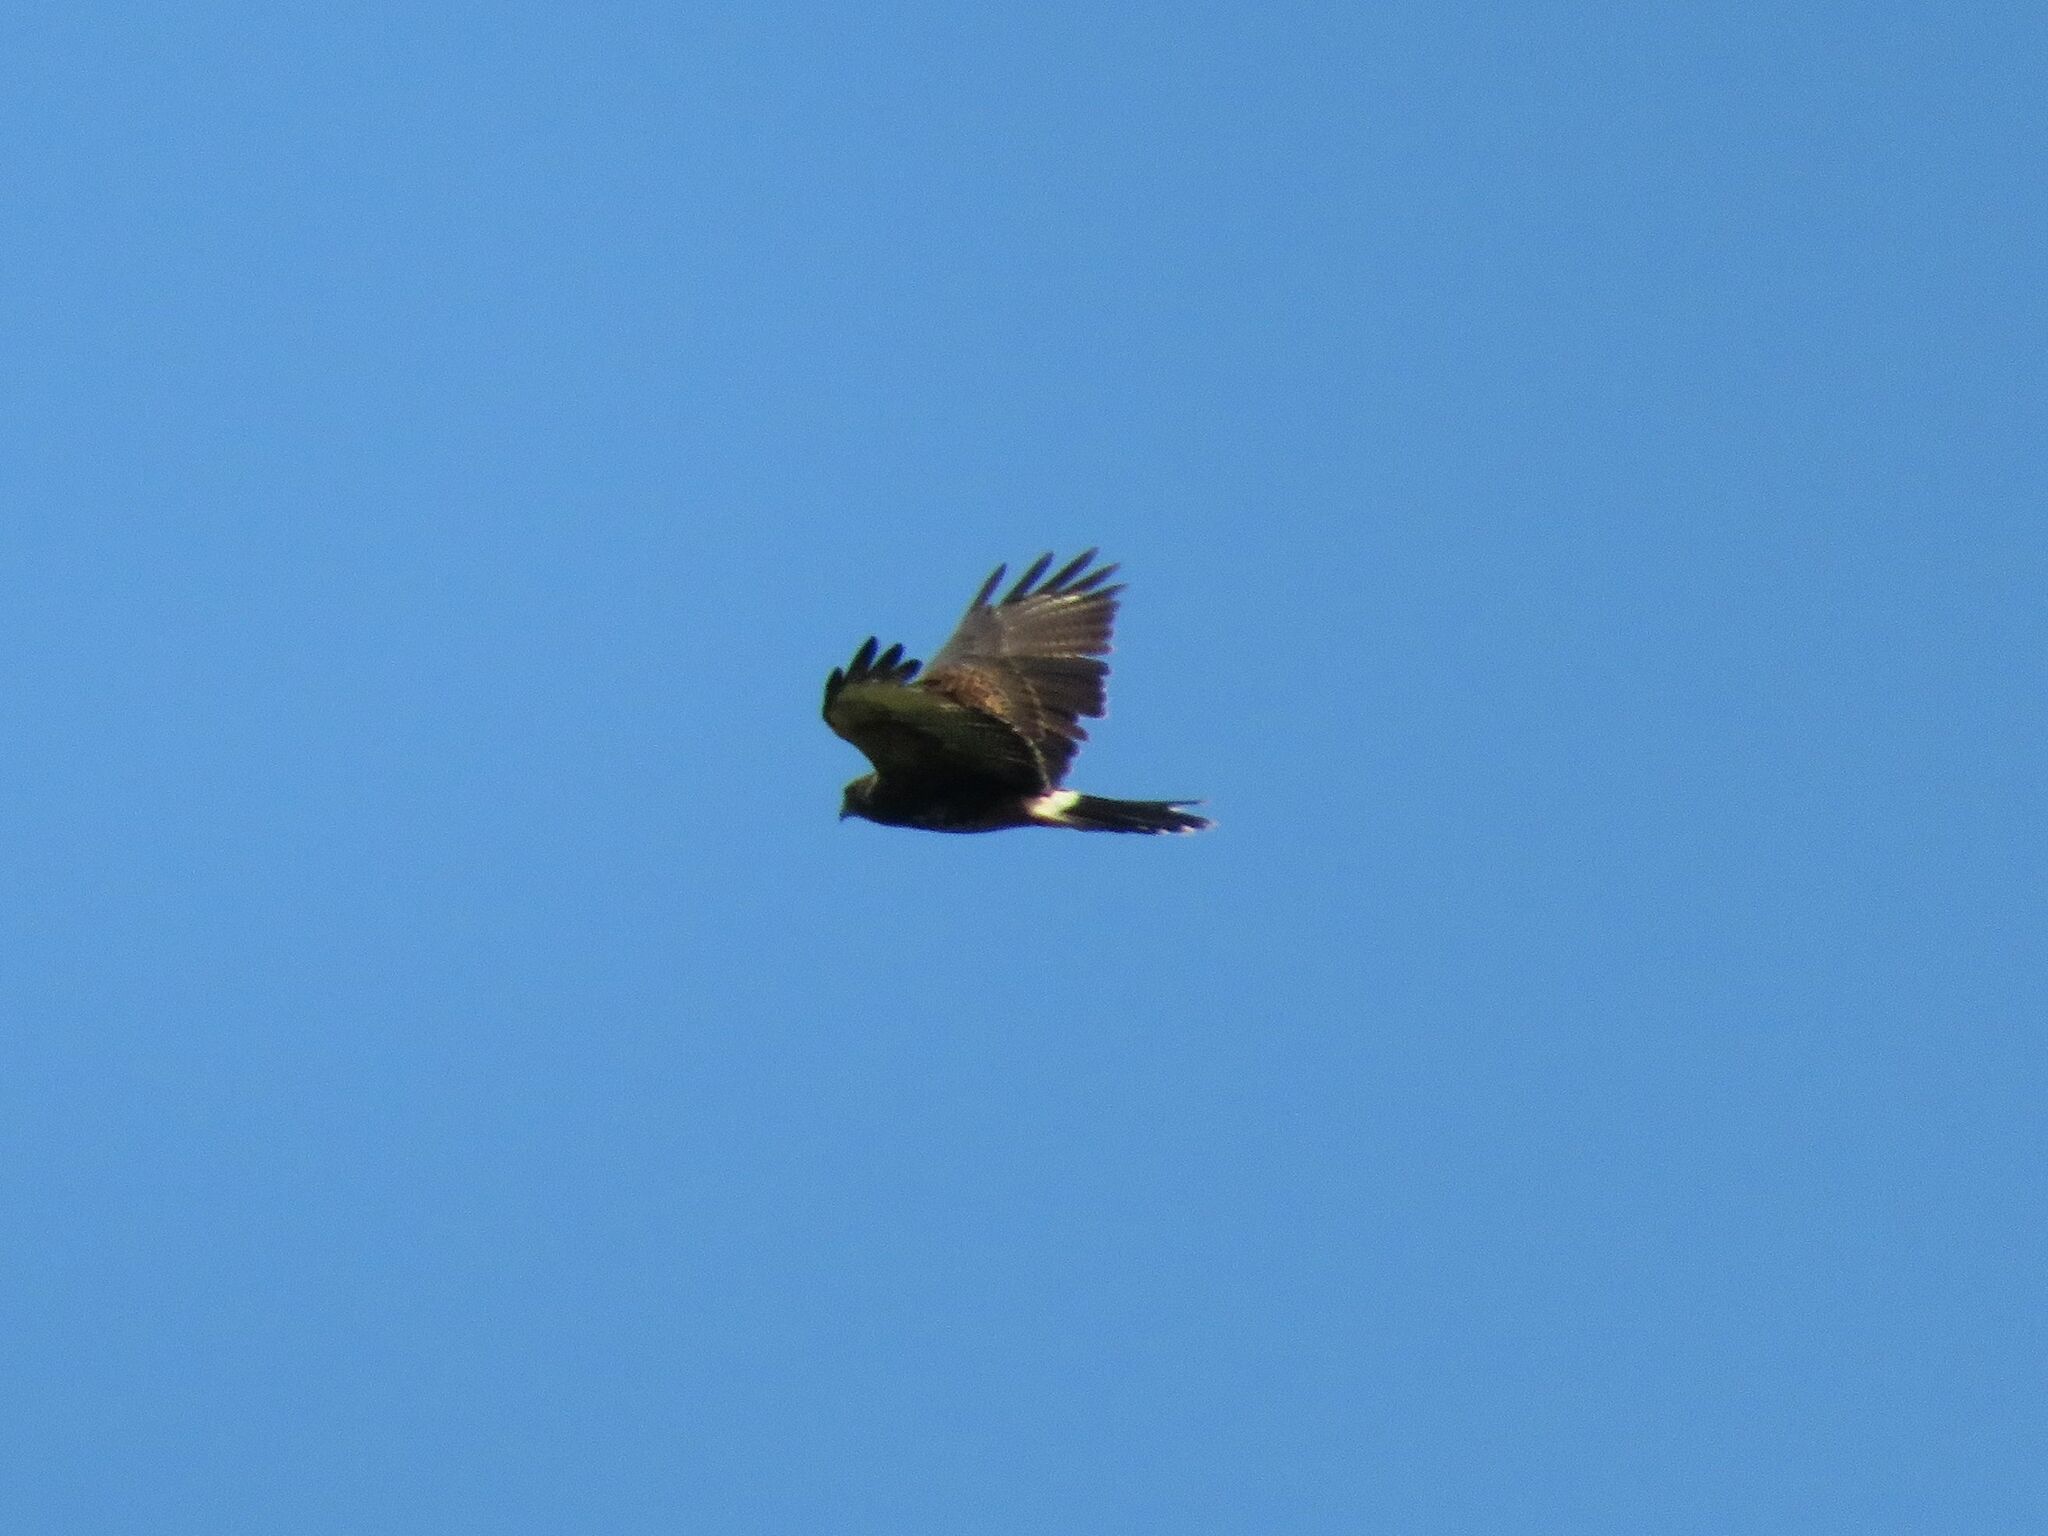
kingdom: Animalia
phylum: Chordata
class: Aves
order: Accipitriformes
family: Accipitridae
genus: Parabuteo
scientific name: Parabuteo unicinctus
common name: Harris's hawk
